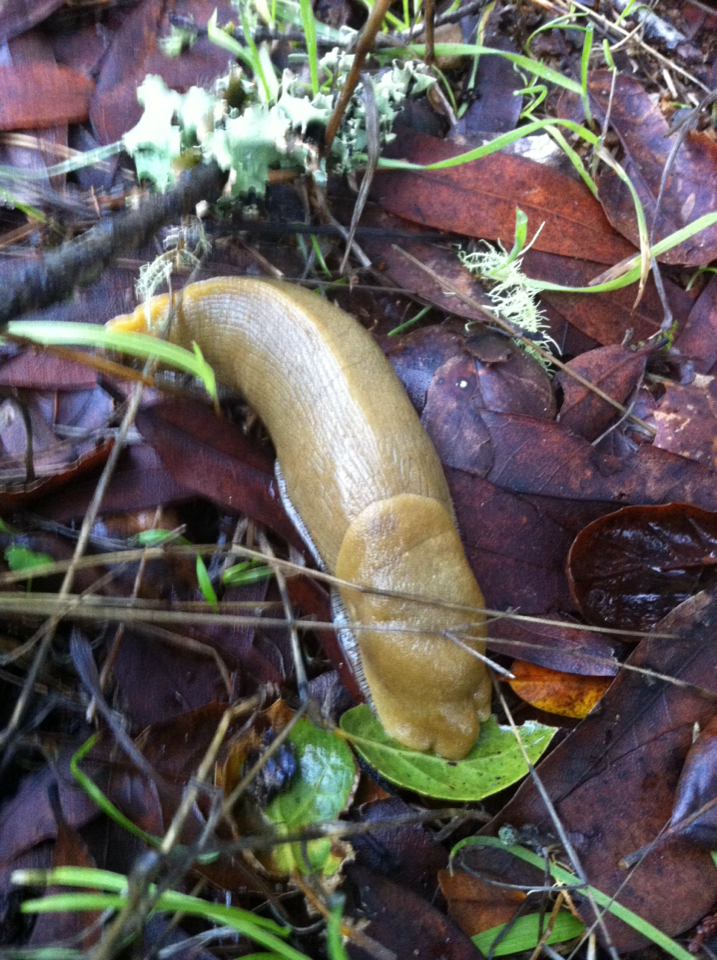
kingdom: Animalia
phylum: Mollusca
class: Gastropoda
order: Stylommatophora
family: Ariolimacidae
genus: Ariolimax
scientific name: Ariolimax buttoni
